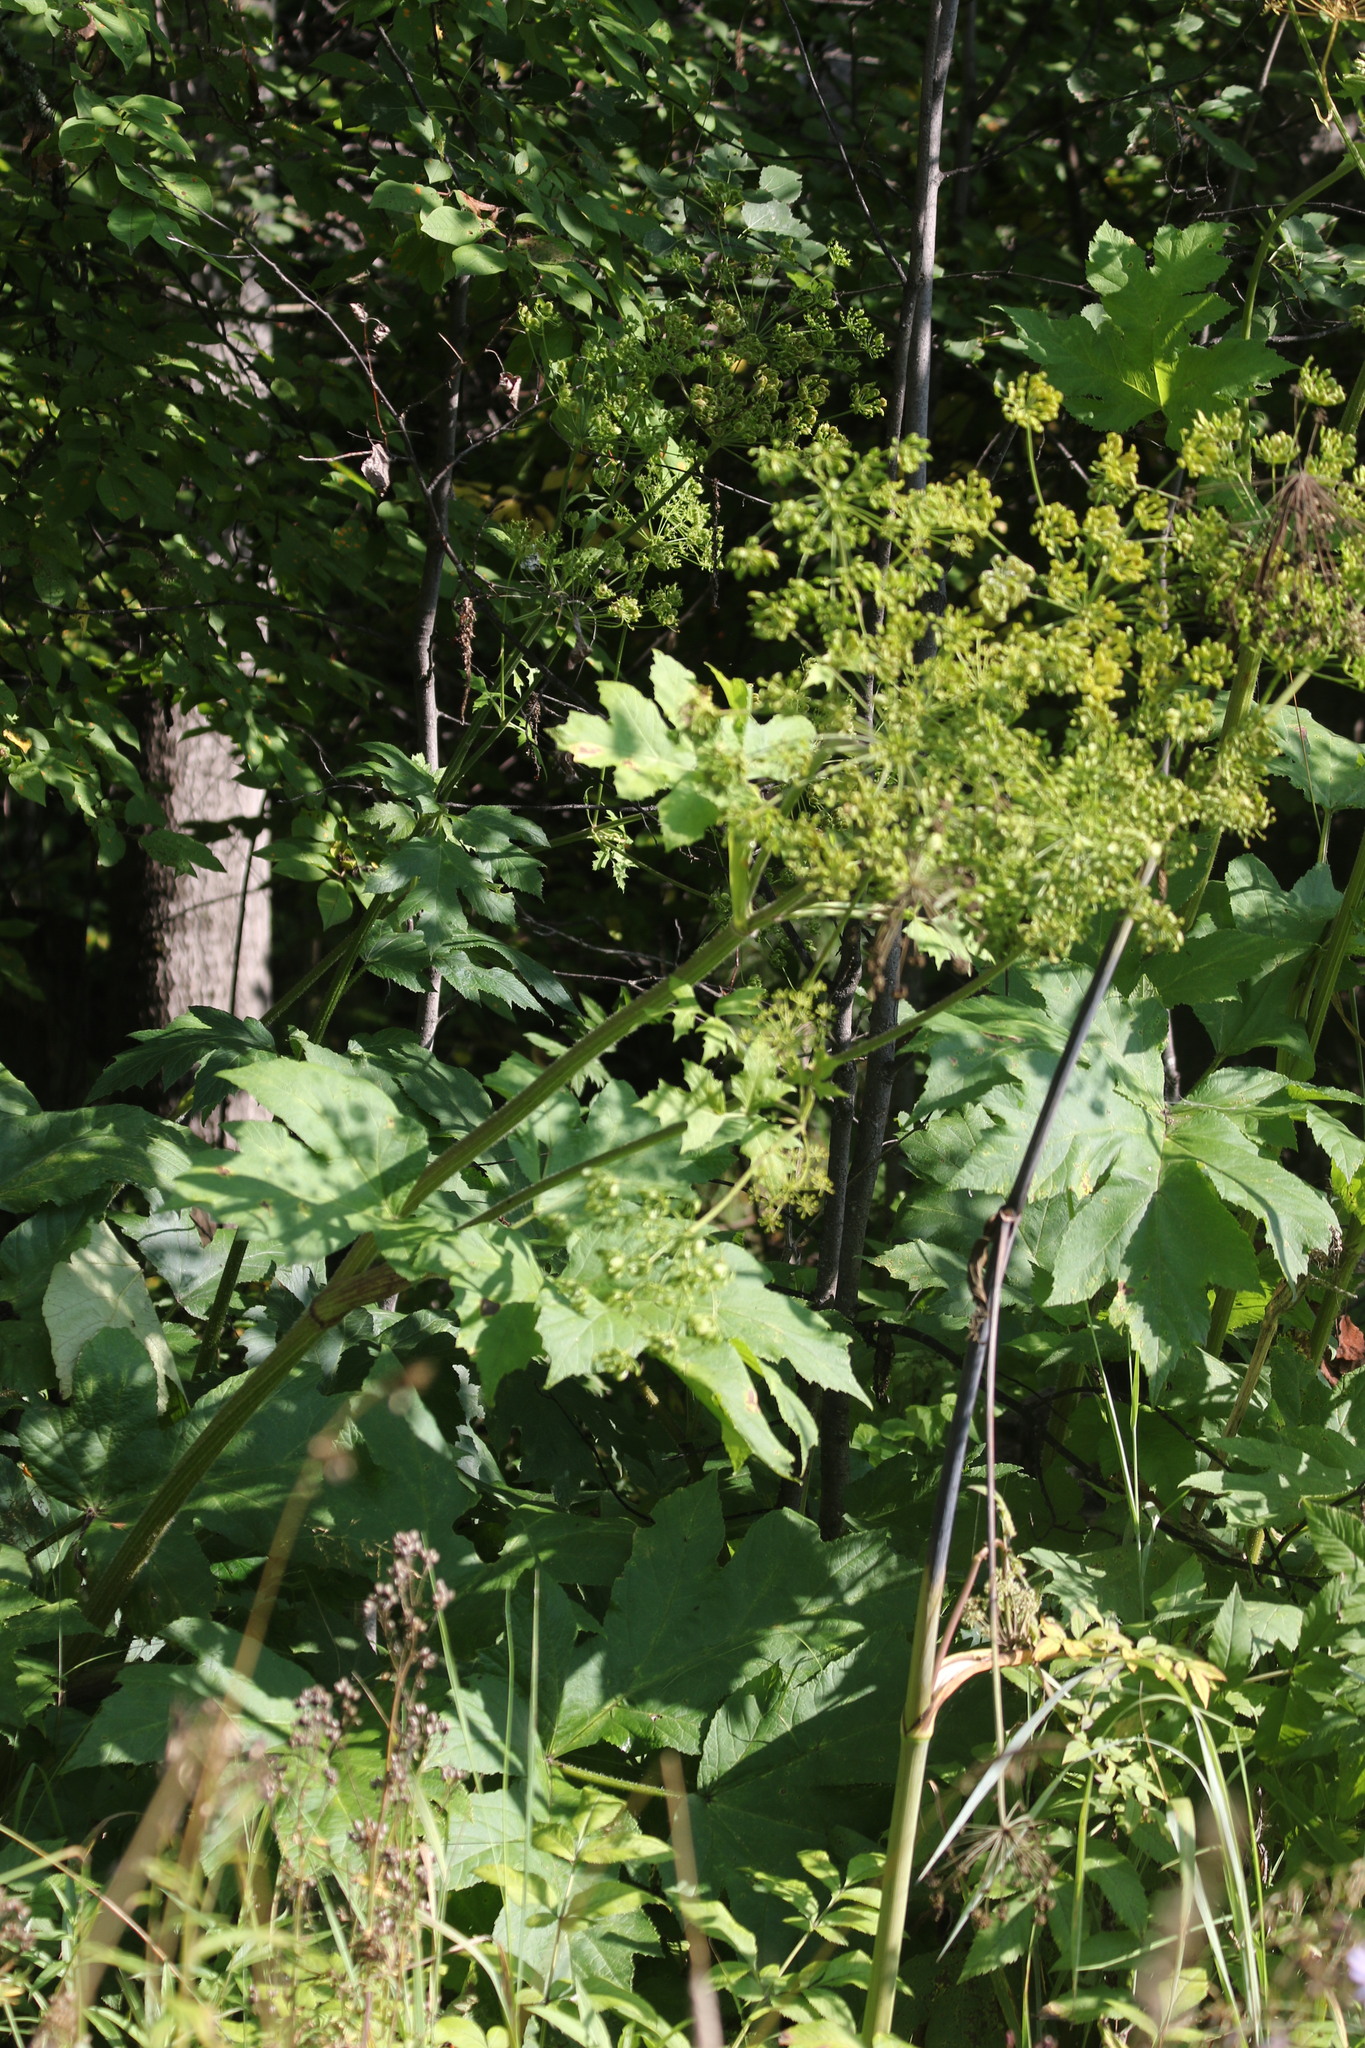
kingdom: Plantae
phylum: Tracheophyta
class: Magnoliopsida
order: Apiales
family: Apiaceae
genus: Heracleum
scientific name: Heracleum sphondylium
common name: Hogweed
